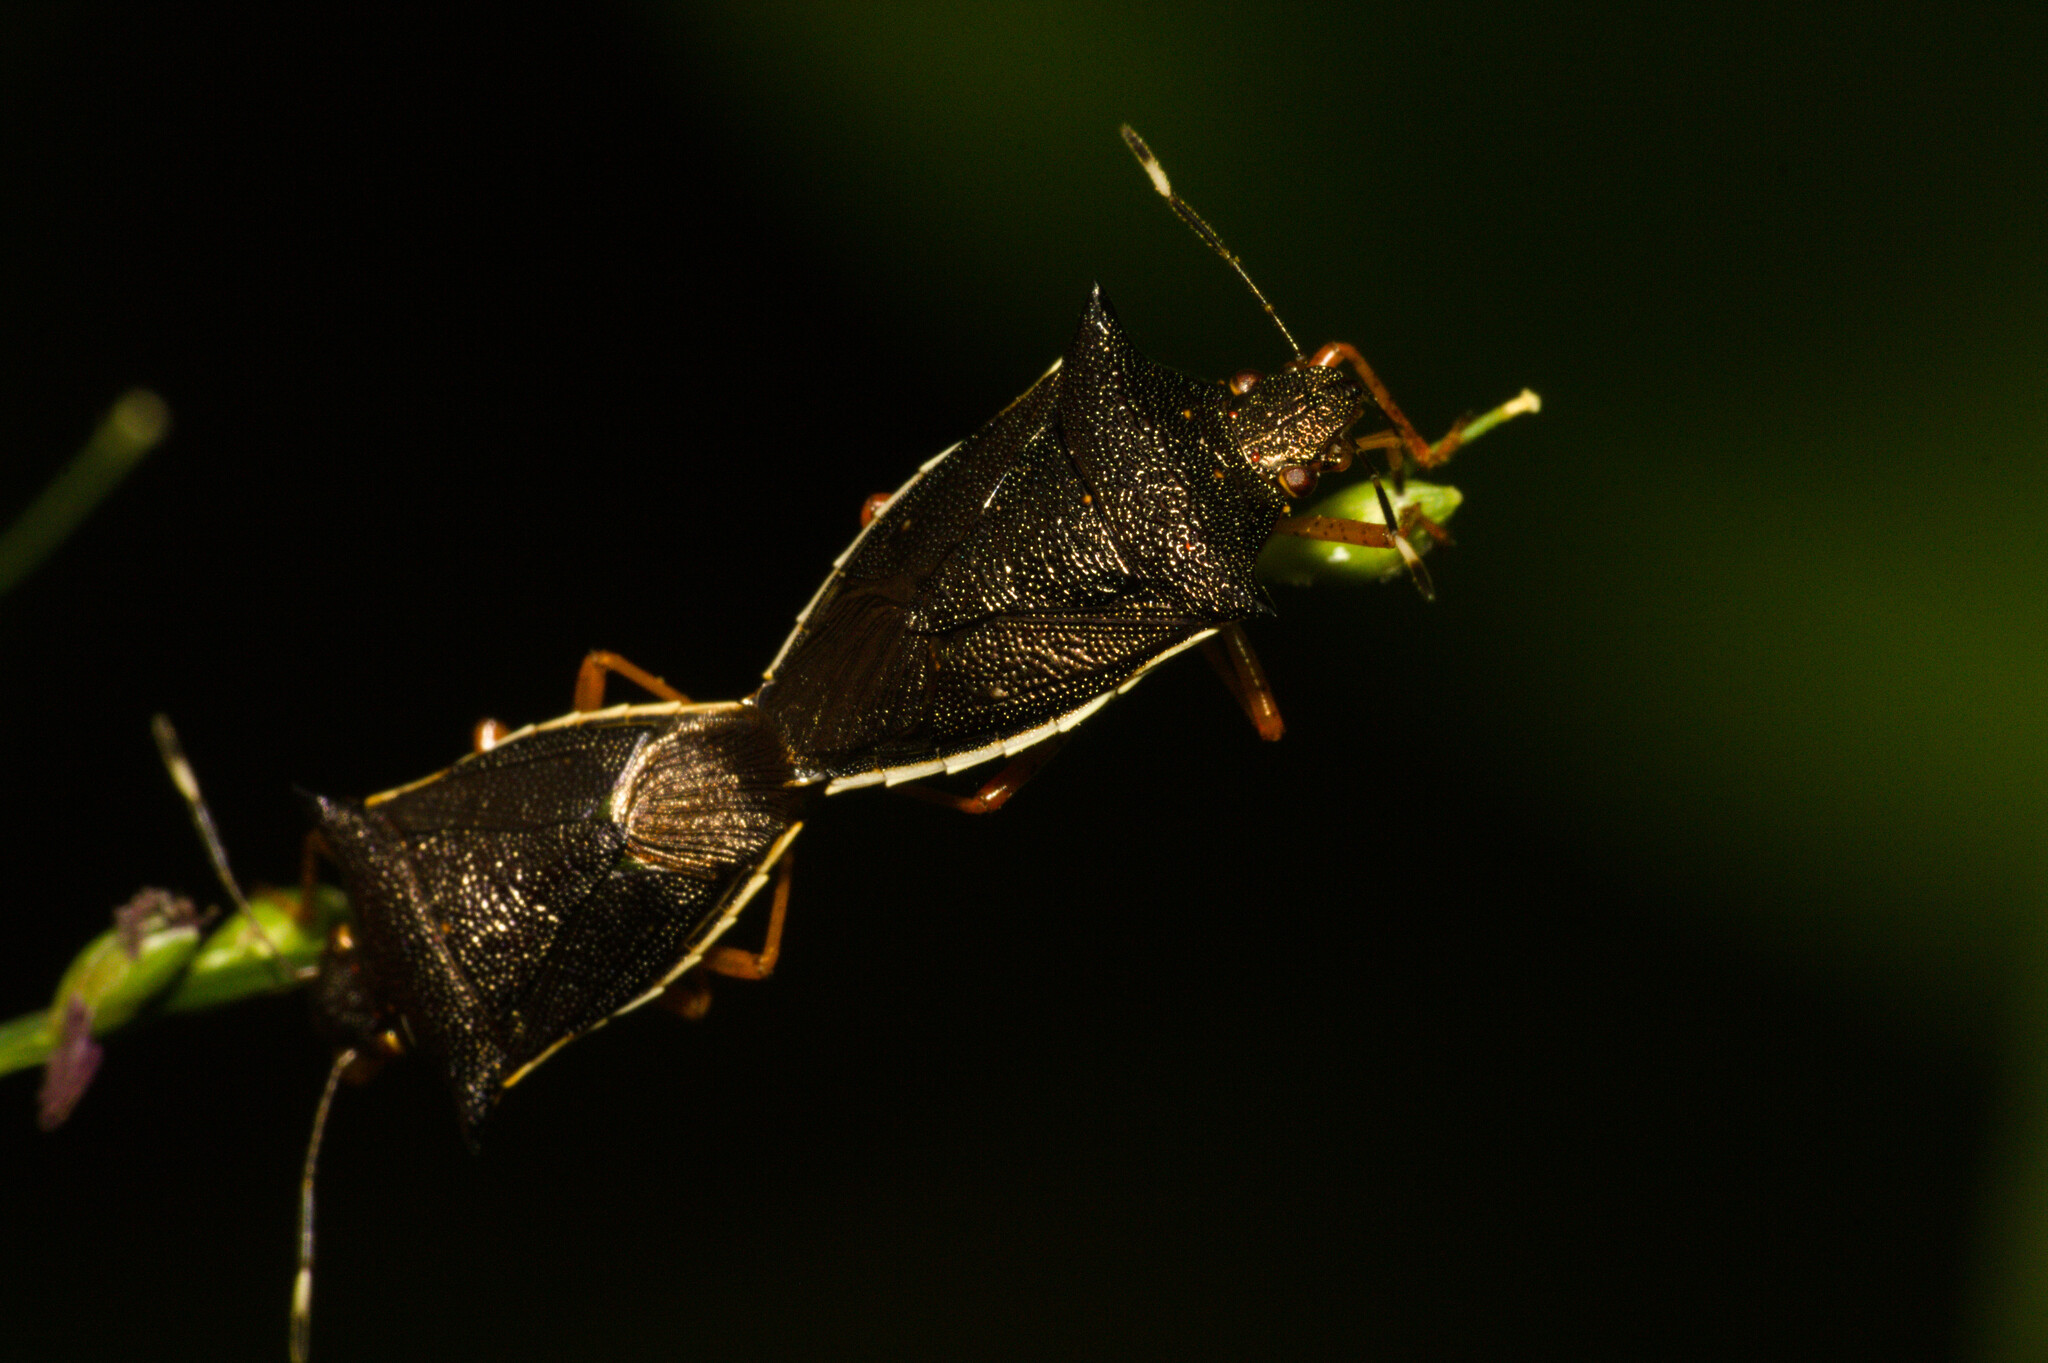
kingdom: Animalia
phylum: Arthropoda
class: Insecta
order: Hemiptera
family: Pentatomidae
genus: Mormidea
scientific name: Mormidea
